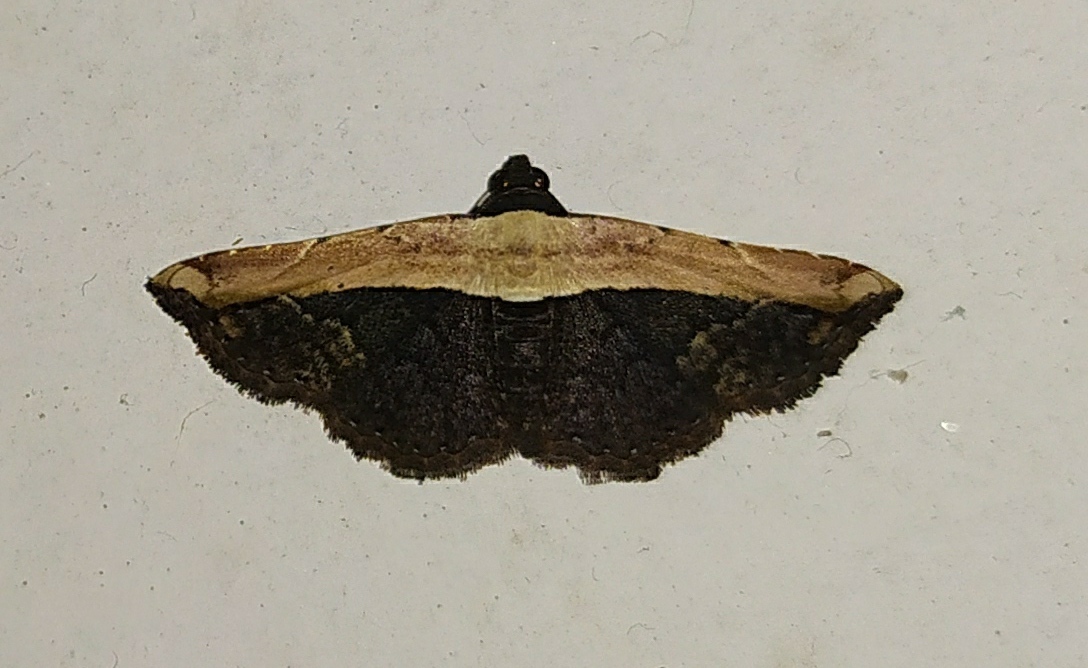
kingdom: Animalia
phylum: Arthropoda
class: Insecta
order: Lepidoptera
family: Noctuidae
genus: Ataboruza
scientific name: Ataboruza divisa
